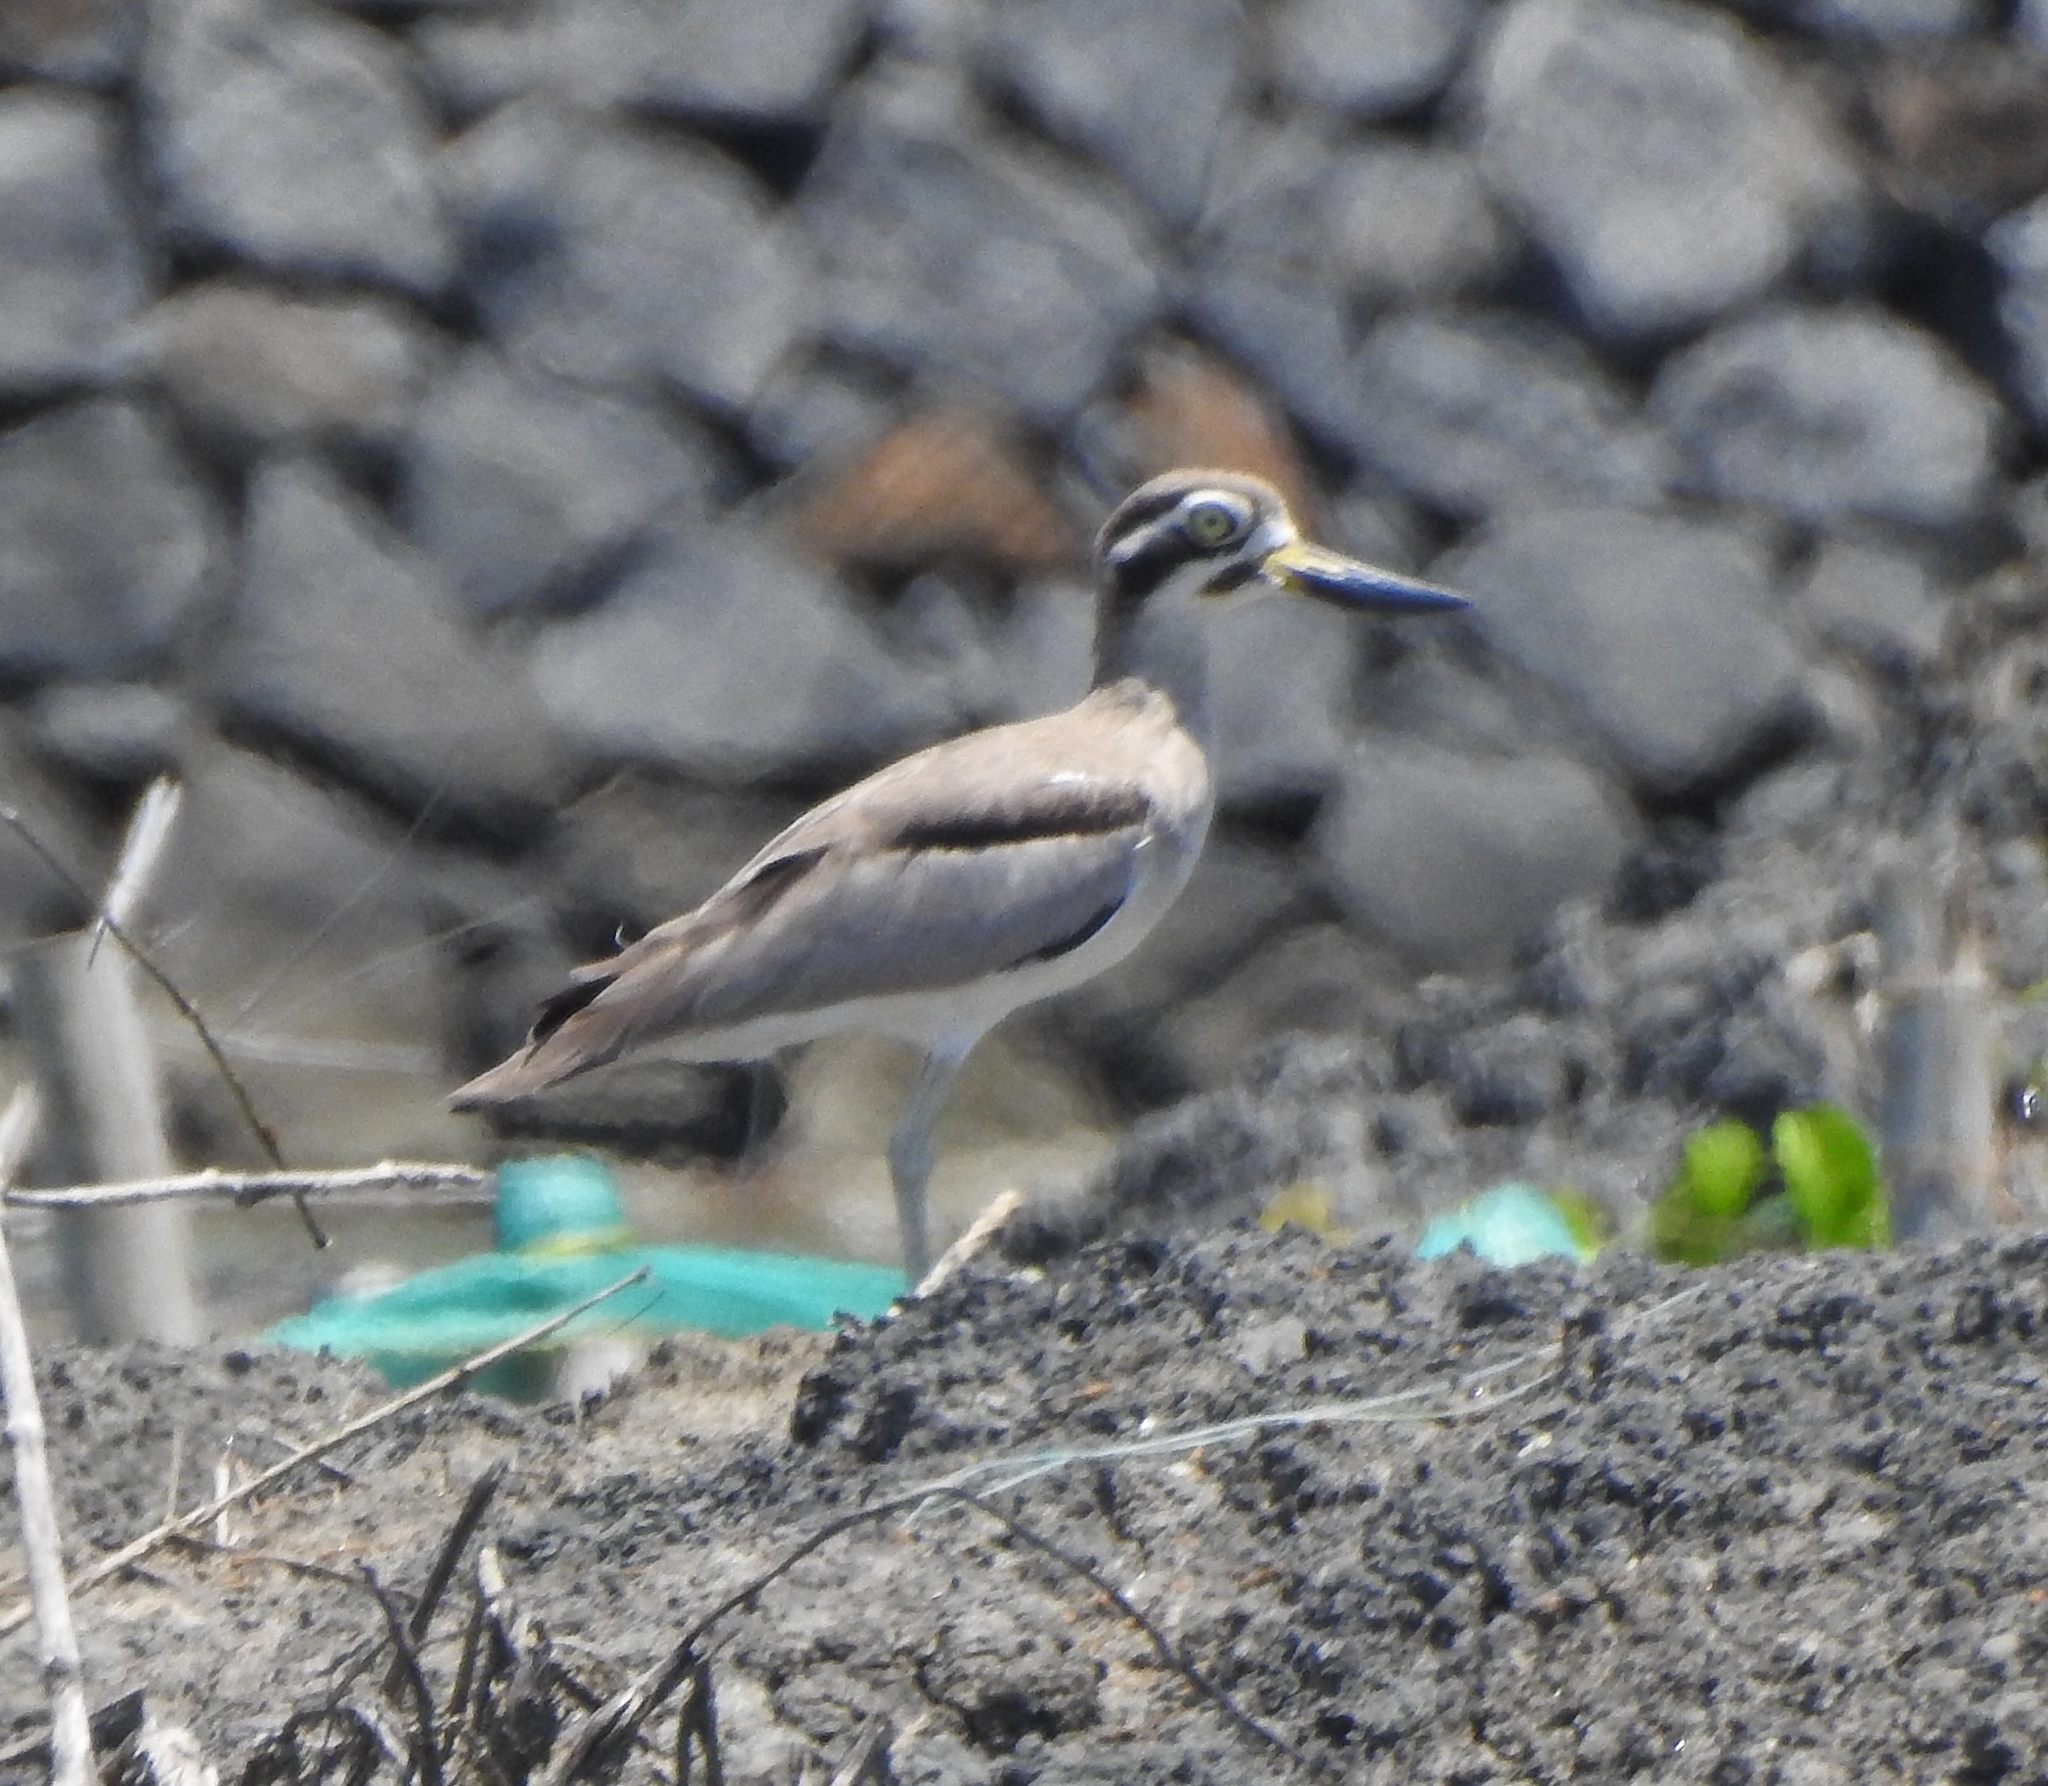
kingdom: Animalia
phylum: Chordata
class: Aves
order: Charadriiformes
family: Burhinidae
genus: Esacus
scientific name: Esacus recurvirostris
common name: Great stone-curlew
